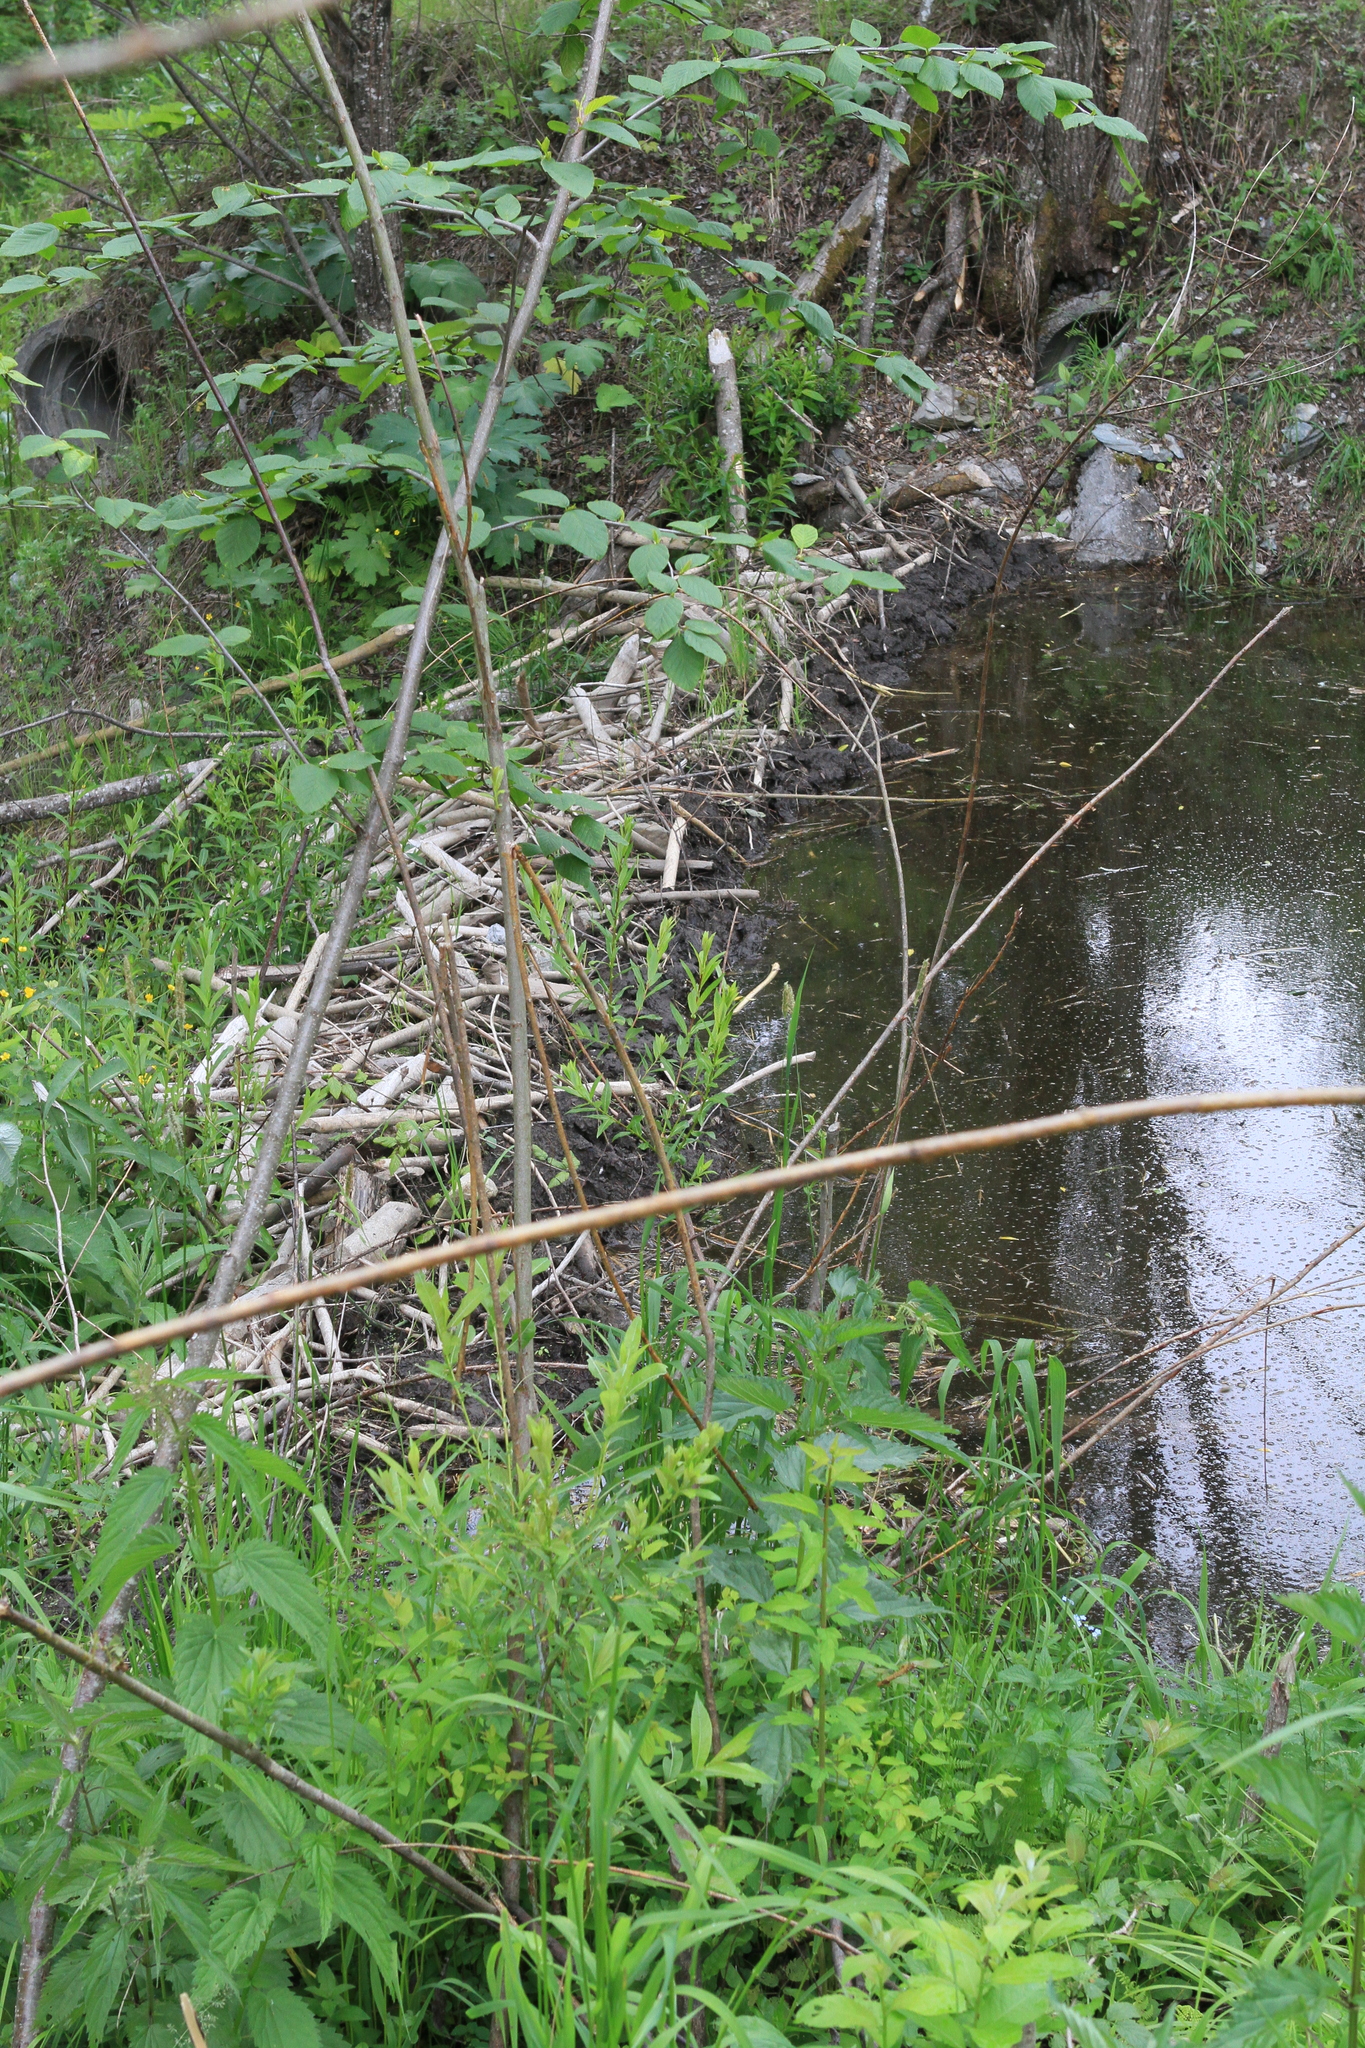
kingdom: Animalia
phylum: Chordata
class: Mammalia
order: Rodentia
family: Castoridae
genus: Castor
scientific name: Castor fiber
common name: Eurasian beaver
